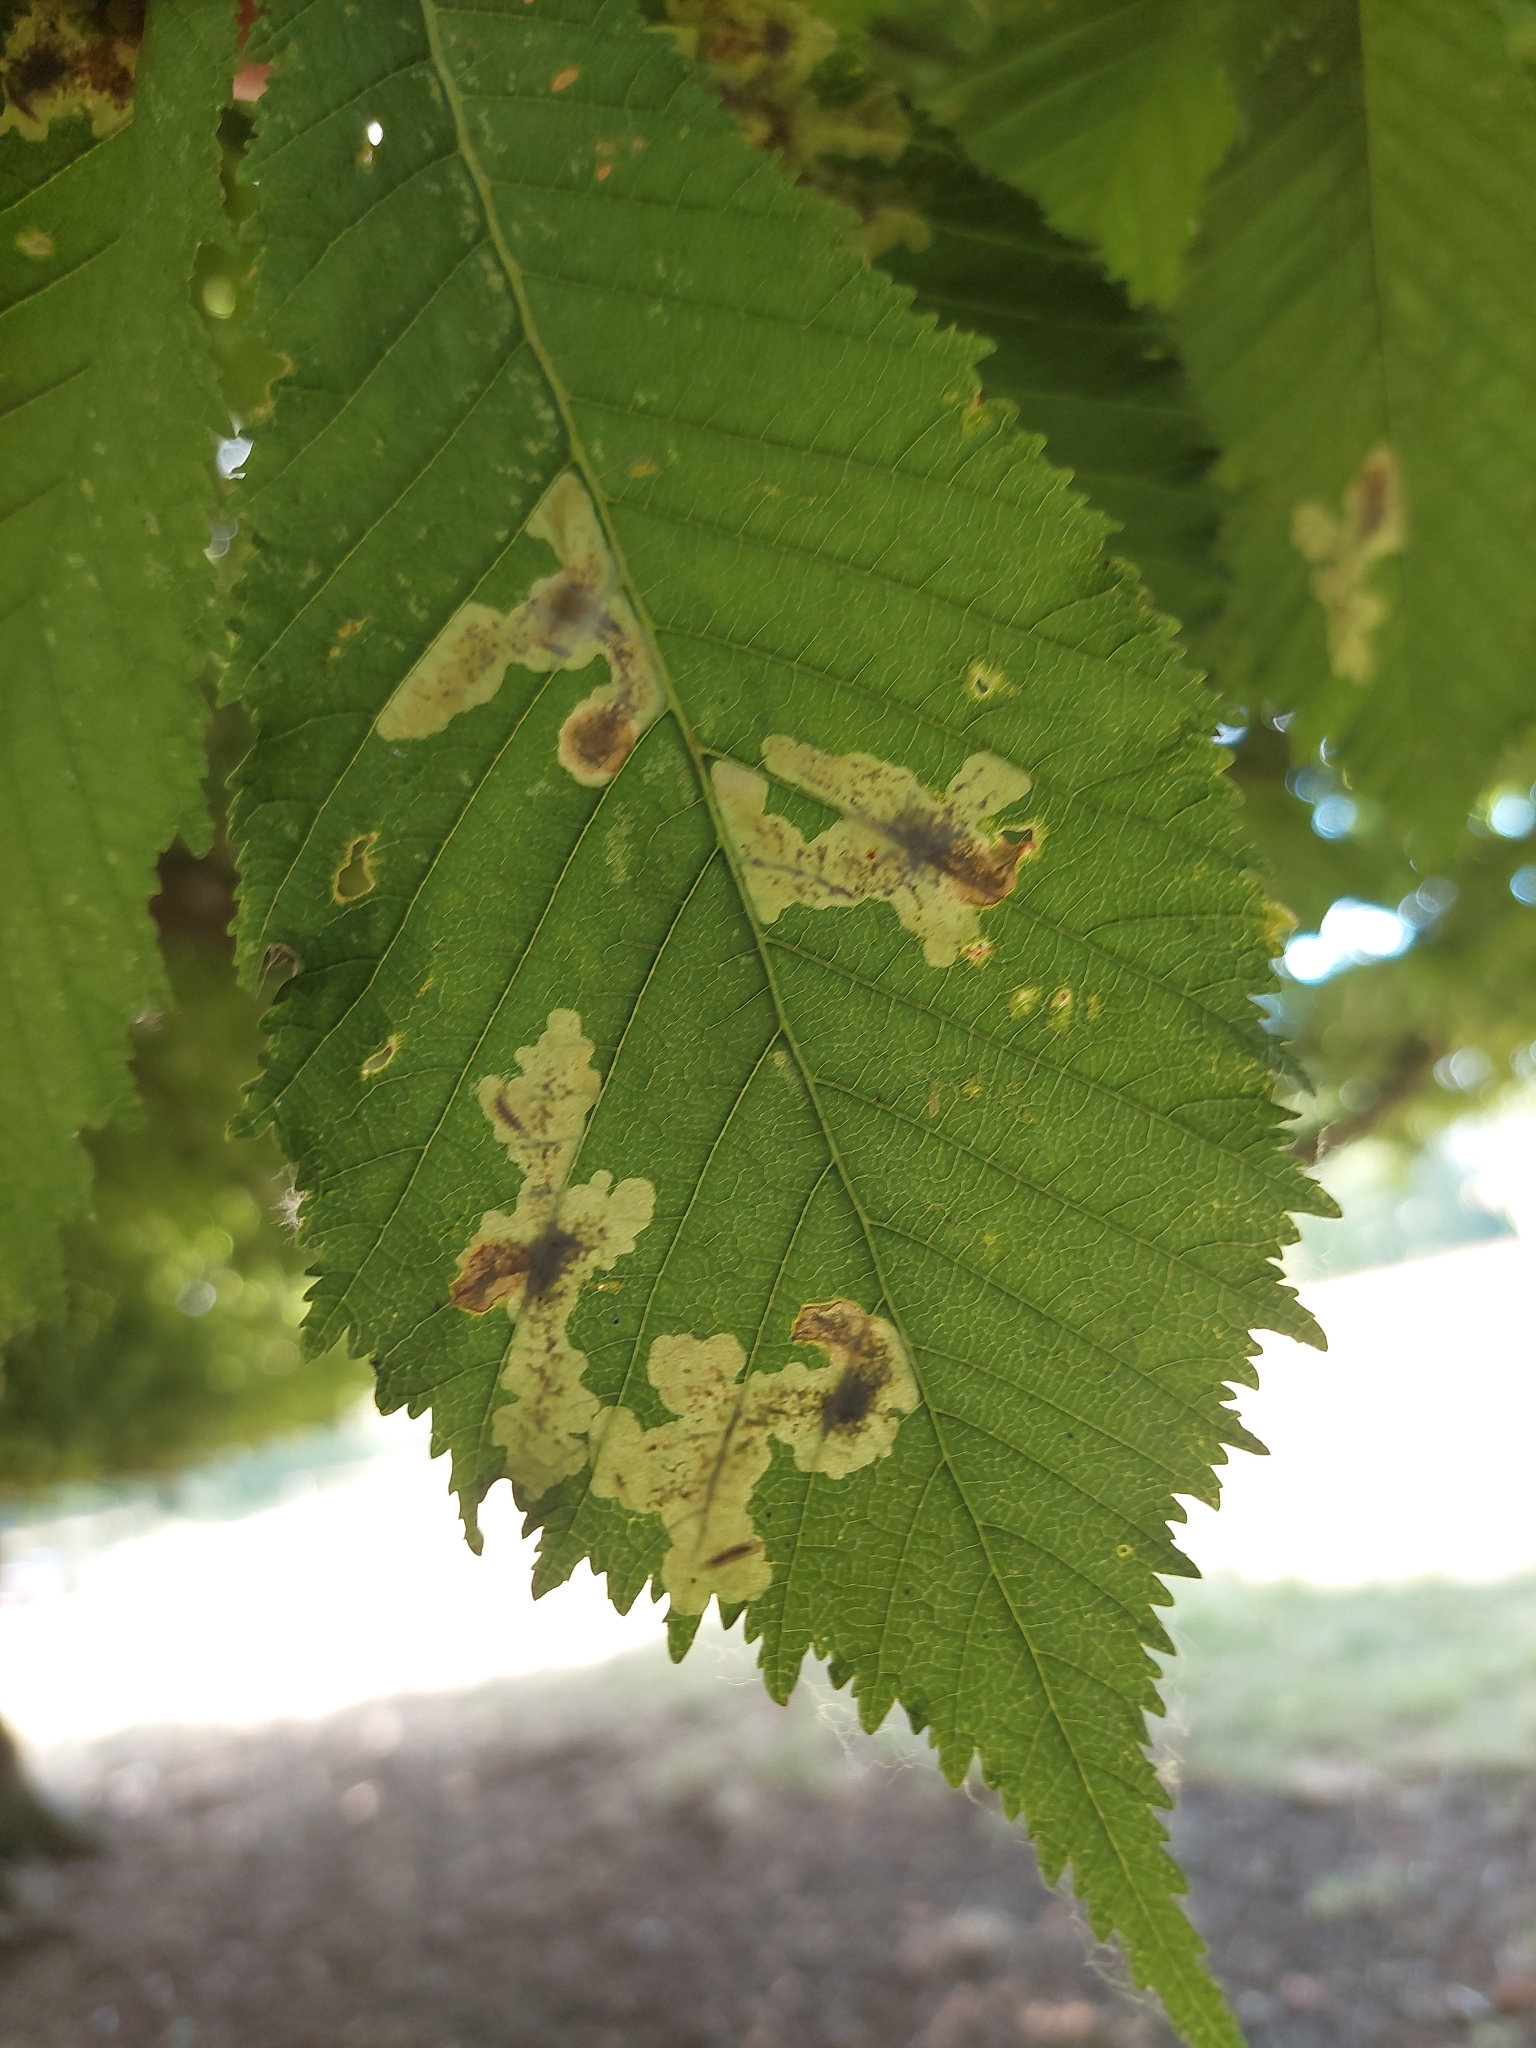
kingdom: Animalia
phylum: Arthropoda
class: Insecta
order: Lepidoptera
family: Gracillariidae
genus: Cameraria
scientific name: Cameraria ohridella
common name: Horse-chestnut leaf-miner
